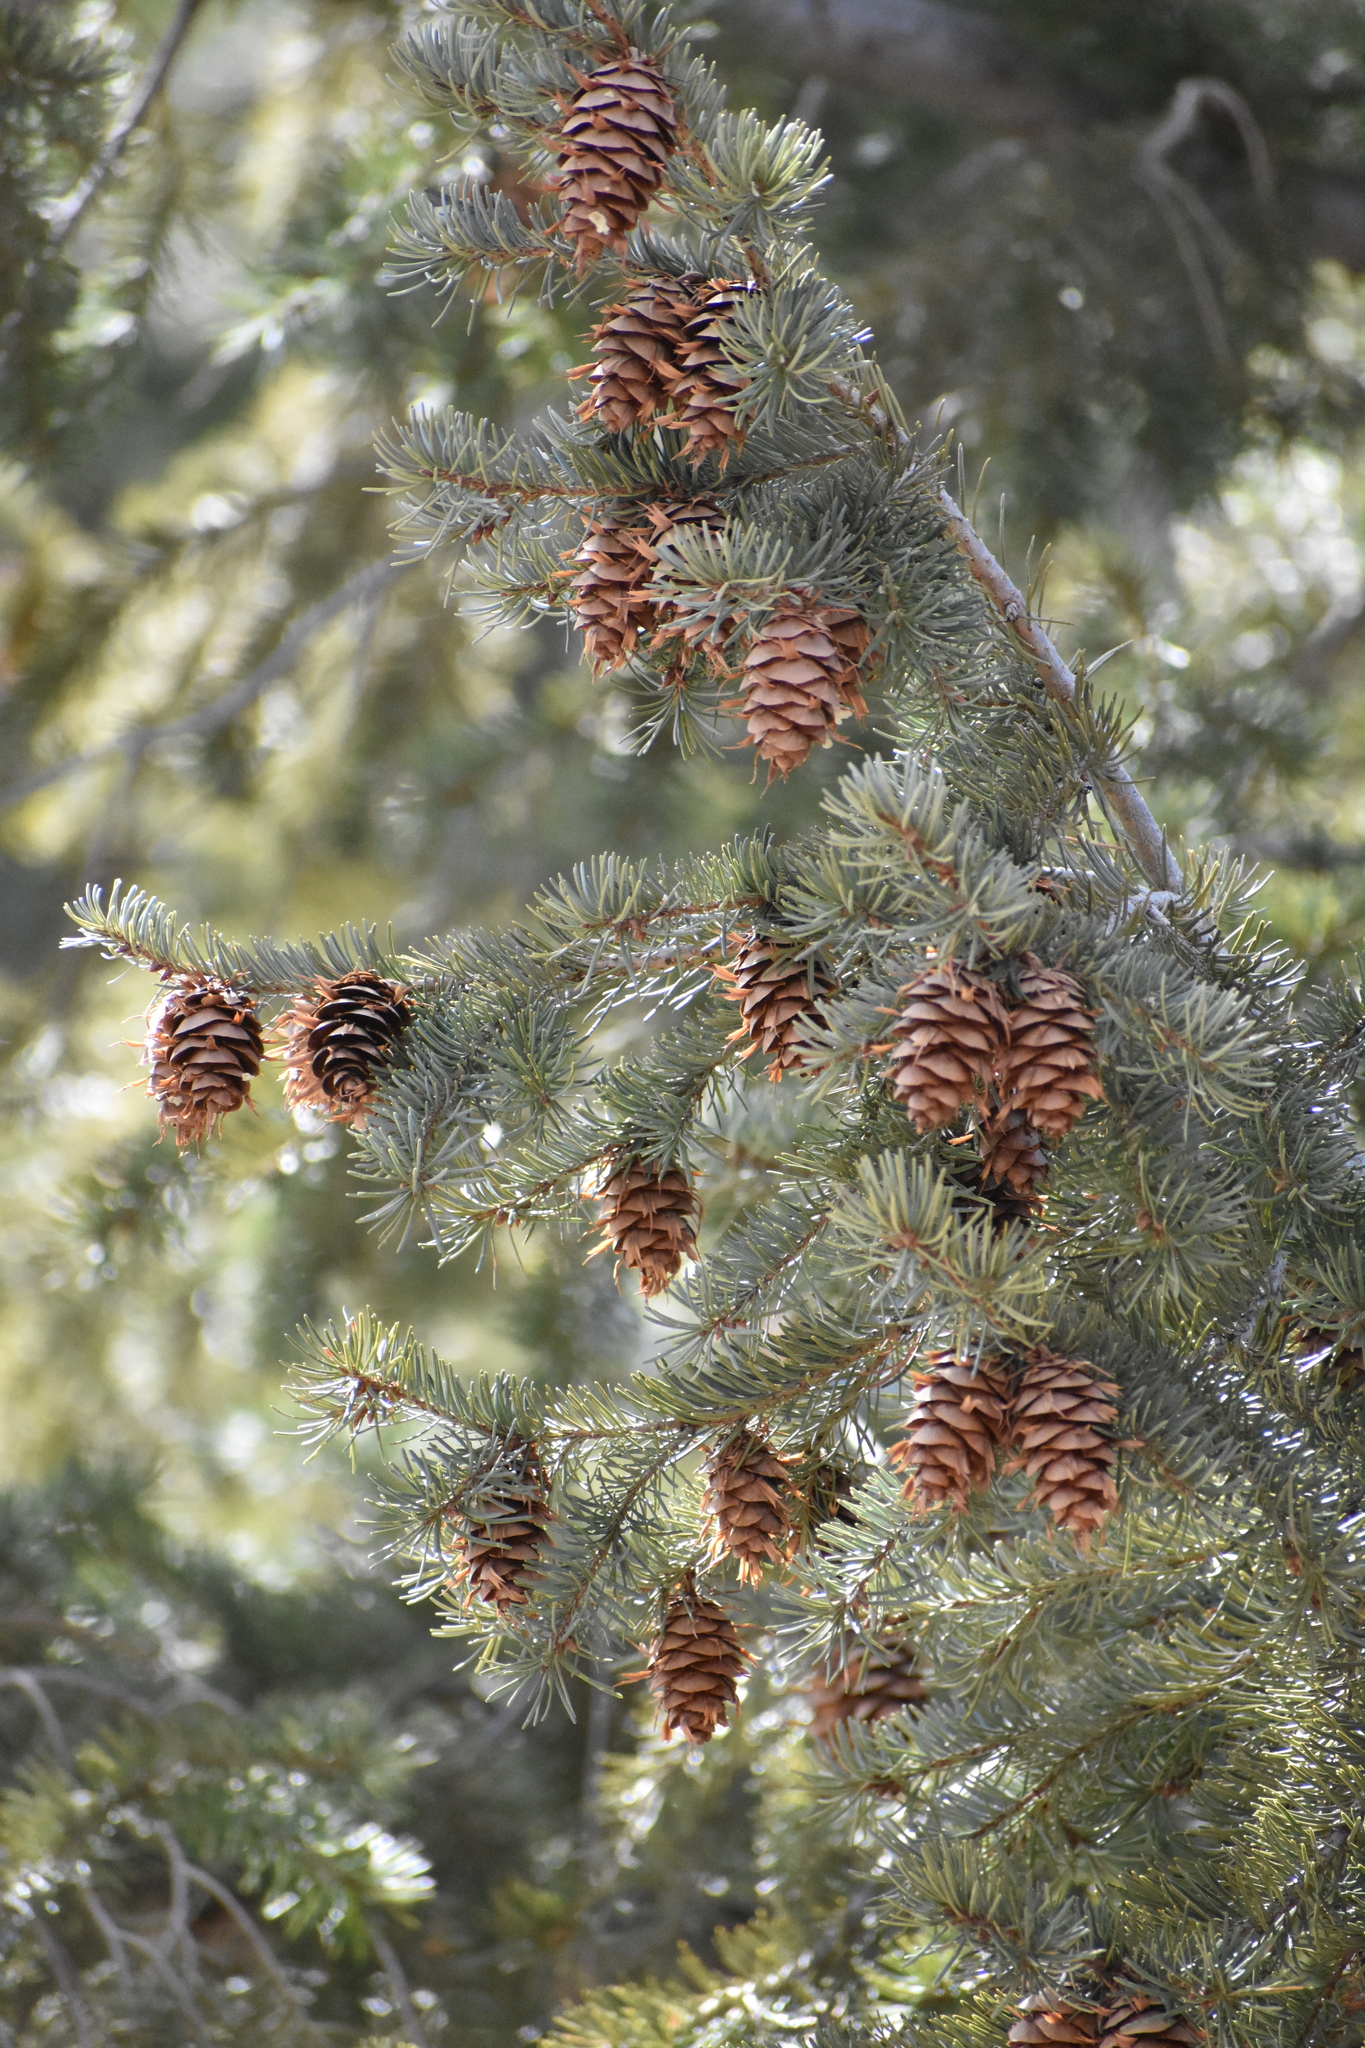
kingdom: Plantae
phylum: Tracheophyta
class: Pinopsida
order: Pinales
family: Pinaceae
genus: Pseudotsuga
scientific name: Pseudotsuga menziesii
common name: Douglas fir
